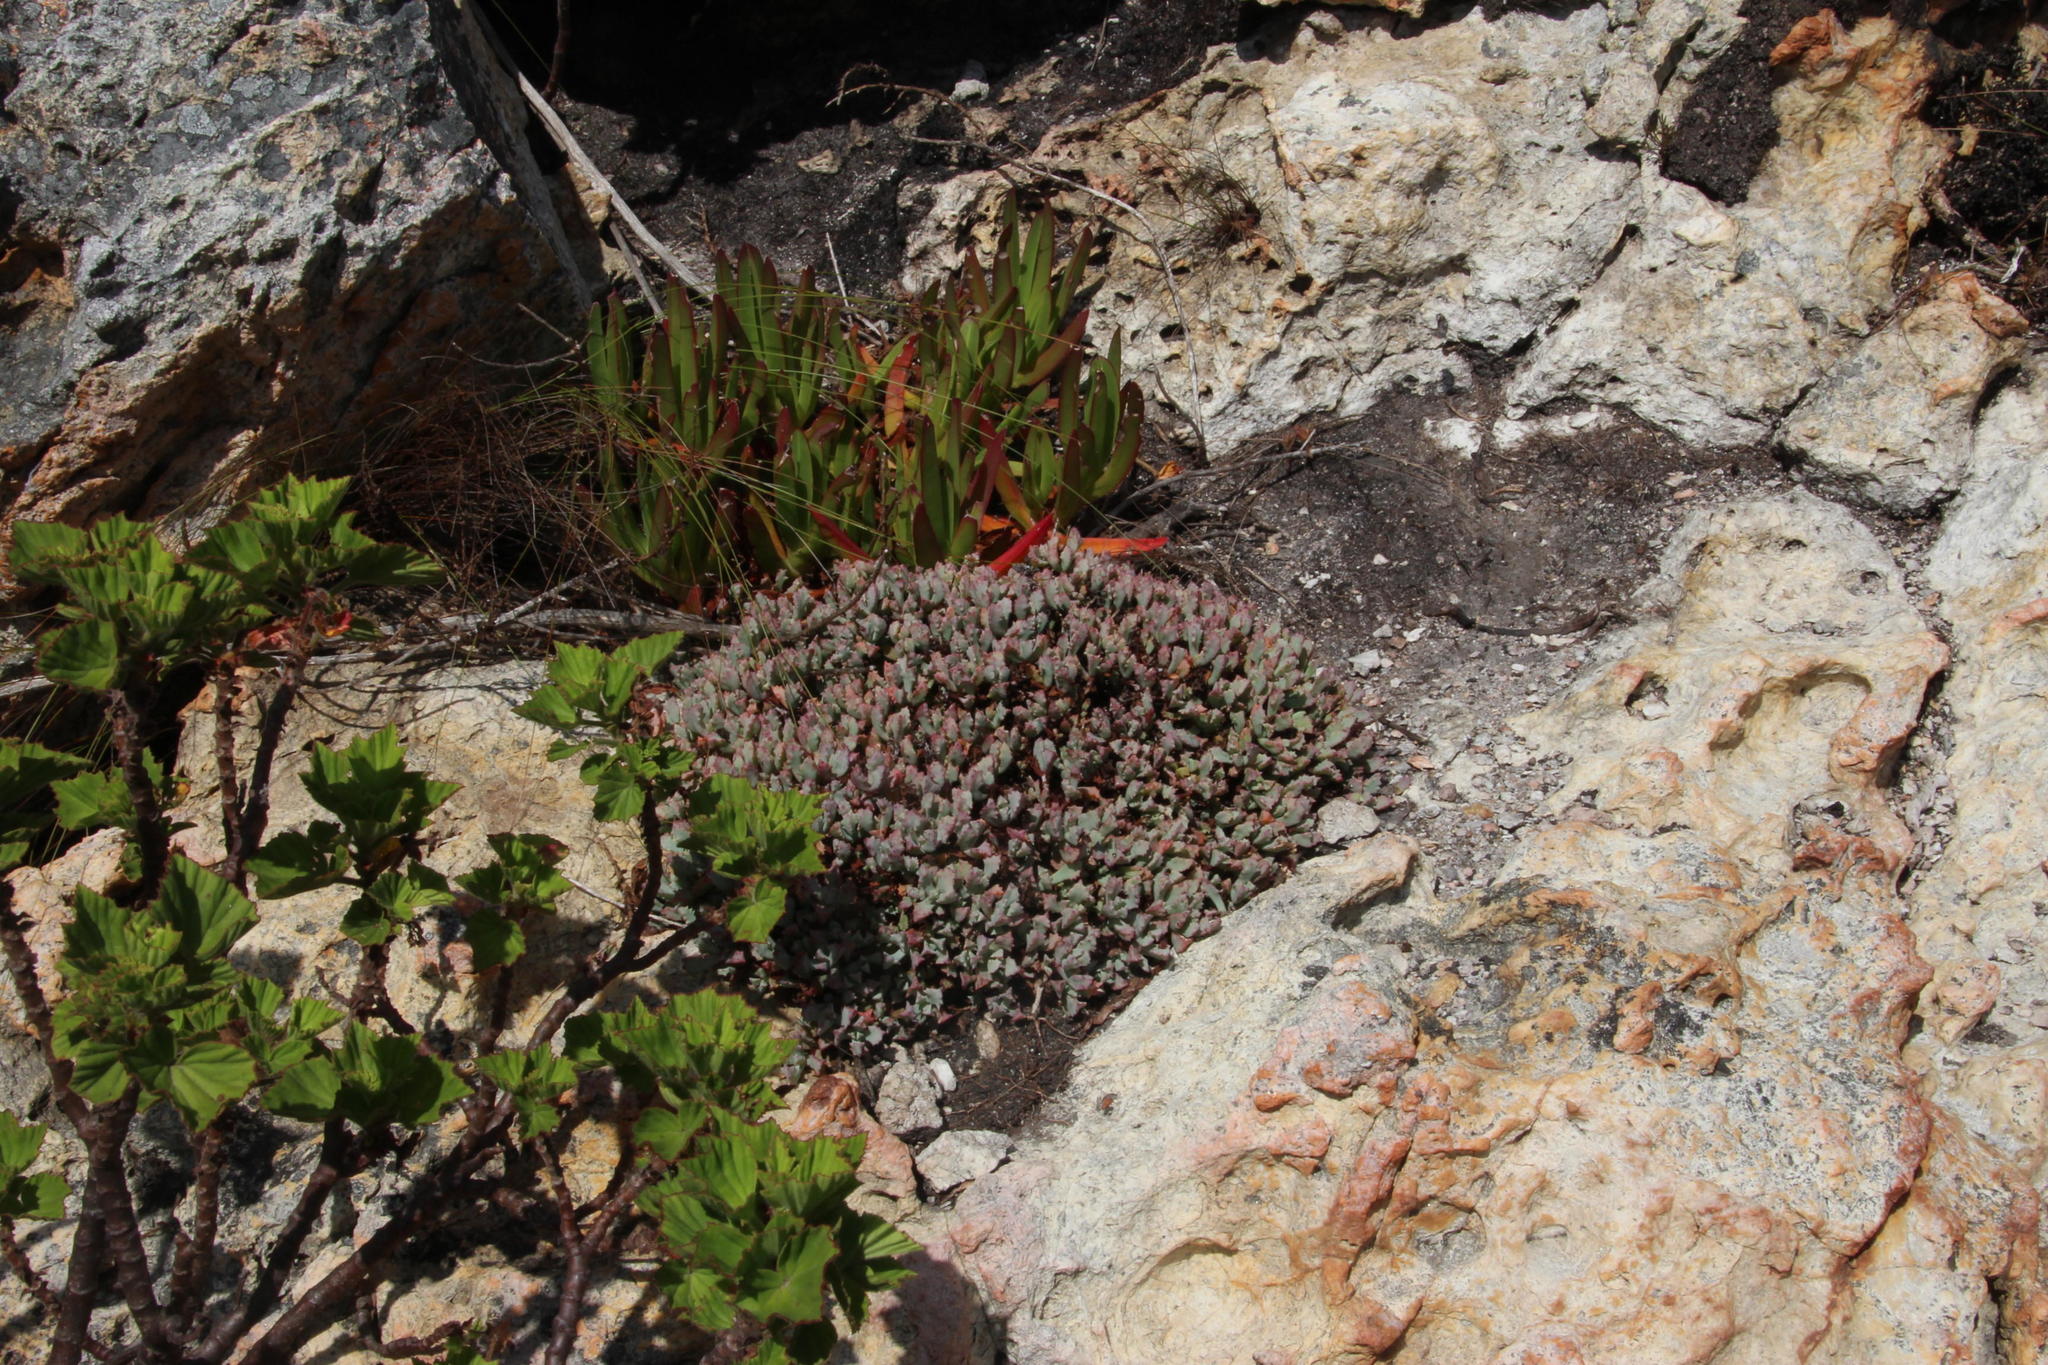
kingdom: Plantae
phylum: Tracheophyta
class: Magnoliopsida
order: Caryophyllales
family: Aizoaceae
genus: Oscularia
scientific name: Oscularia deltoides
